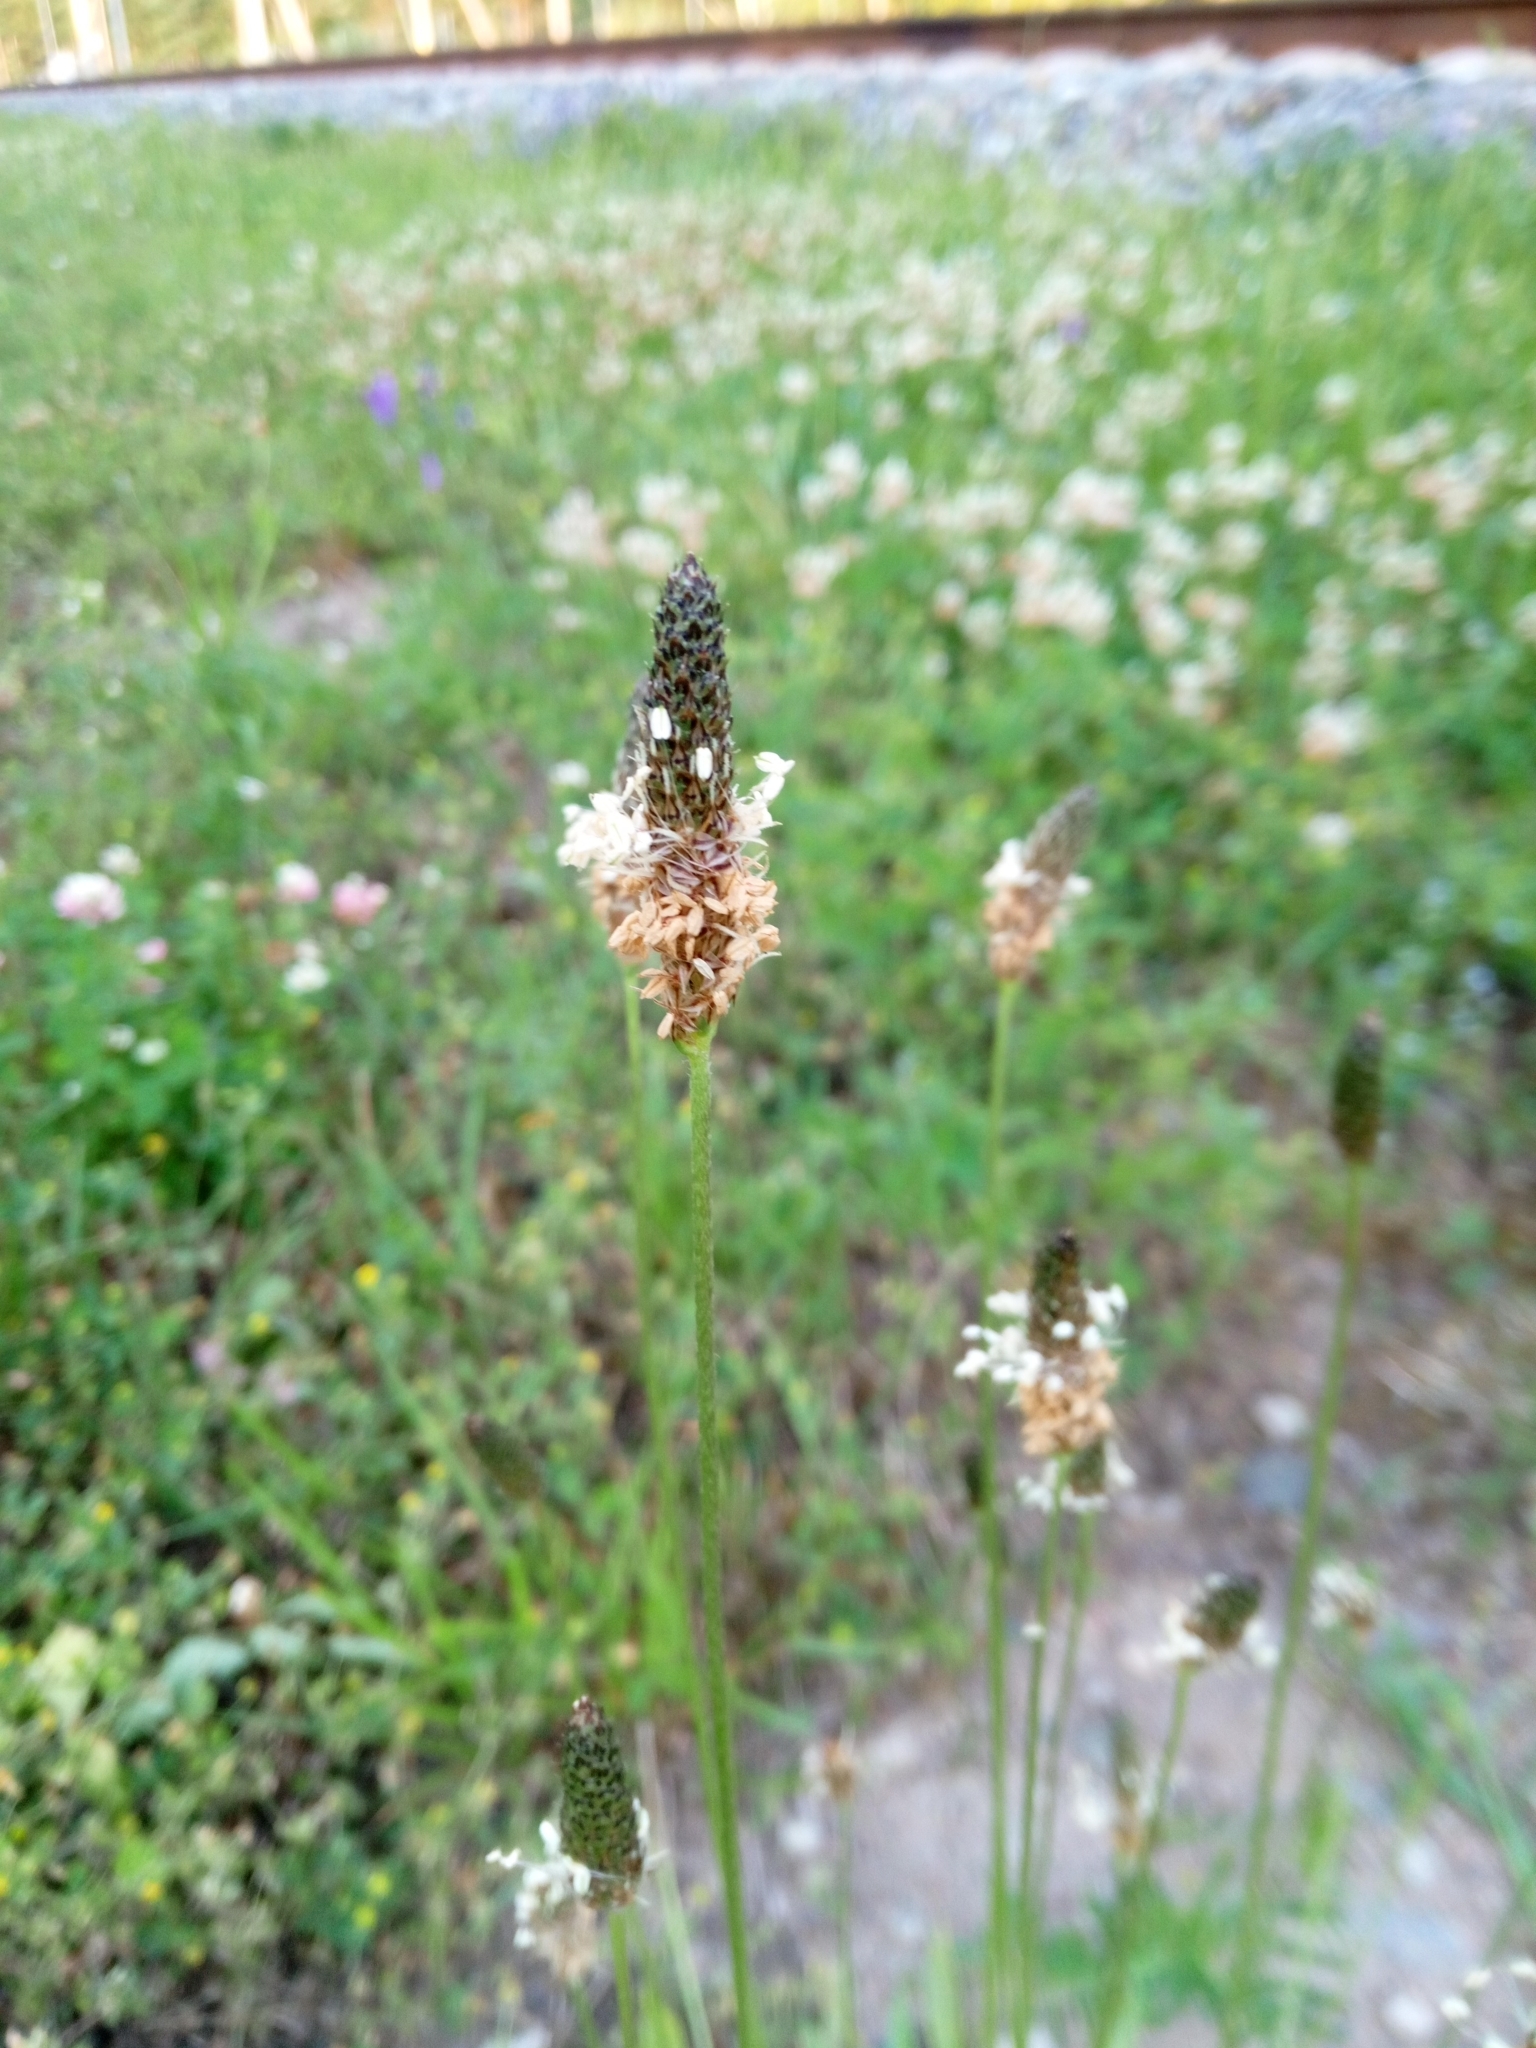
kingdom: Plantae
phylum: Tracheophyta
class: Magnoliopsida
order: Lamiales
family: Plantaginaceae
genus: Plantago
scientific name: Plantago lanceolata
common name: Ribwort plantain
